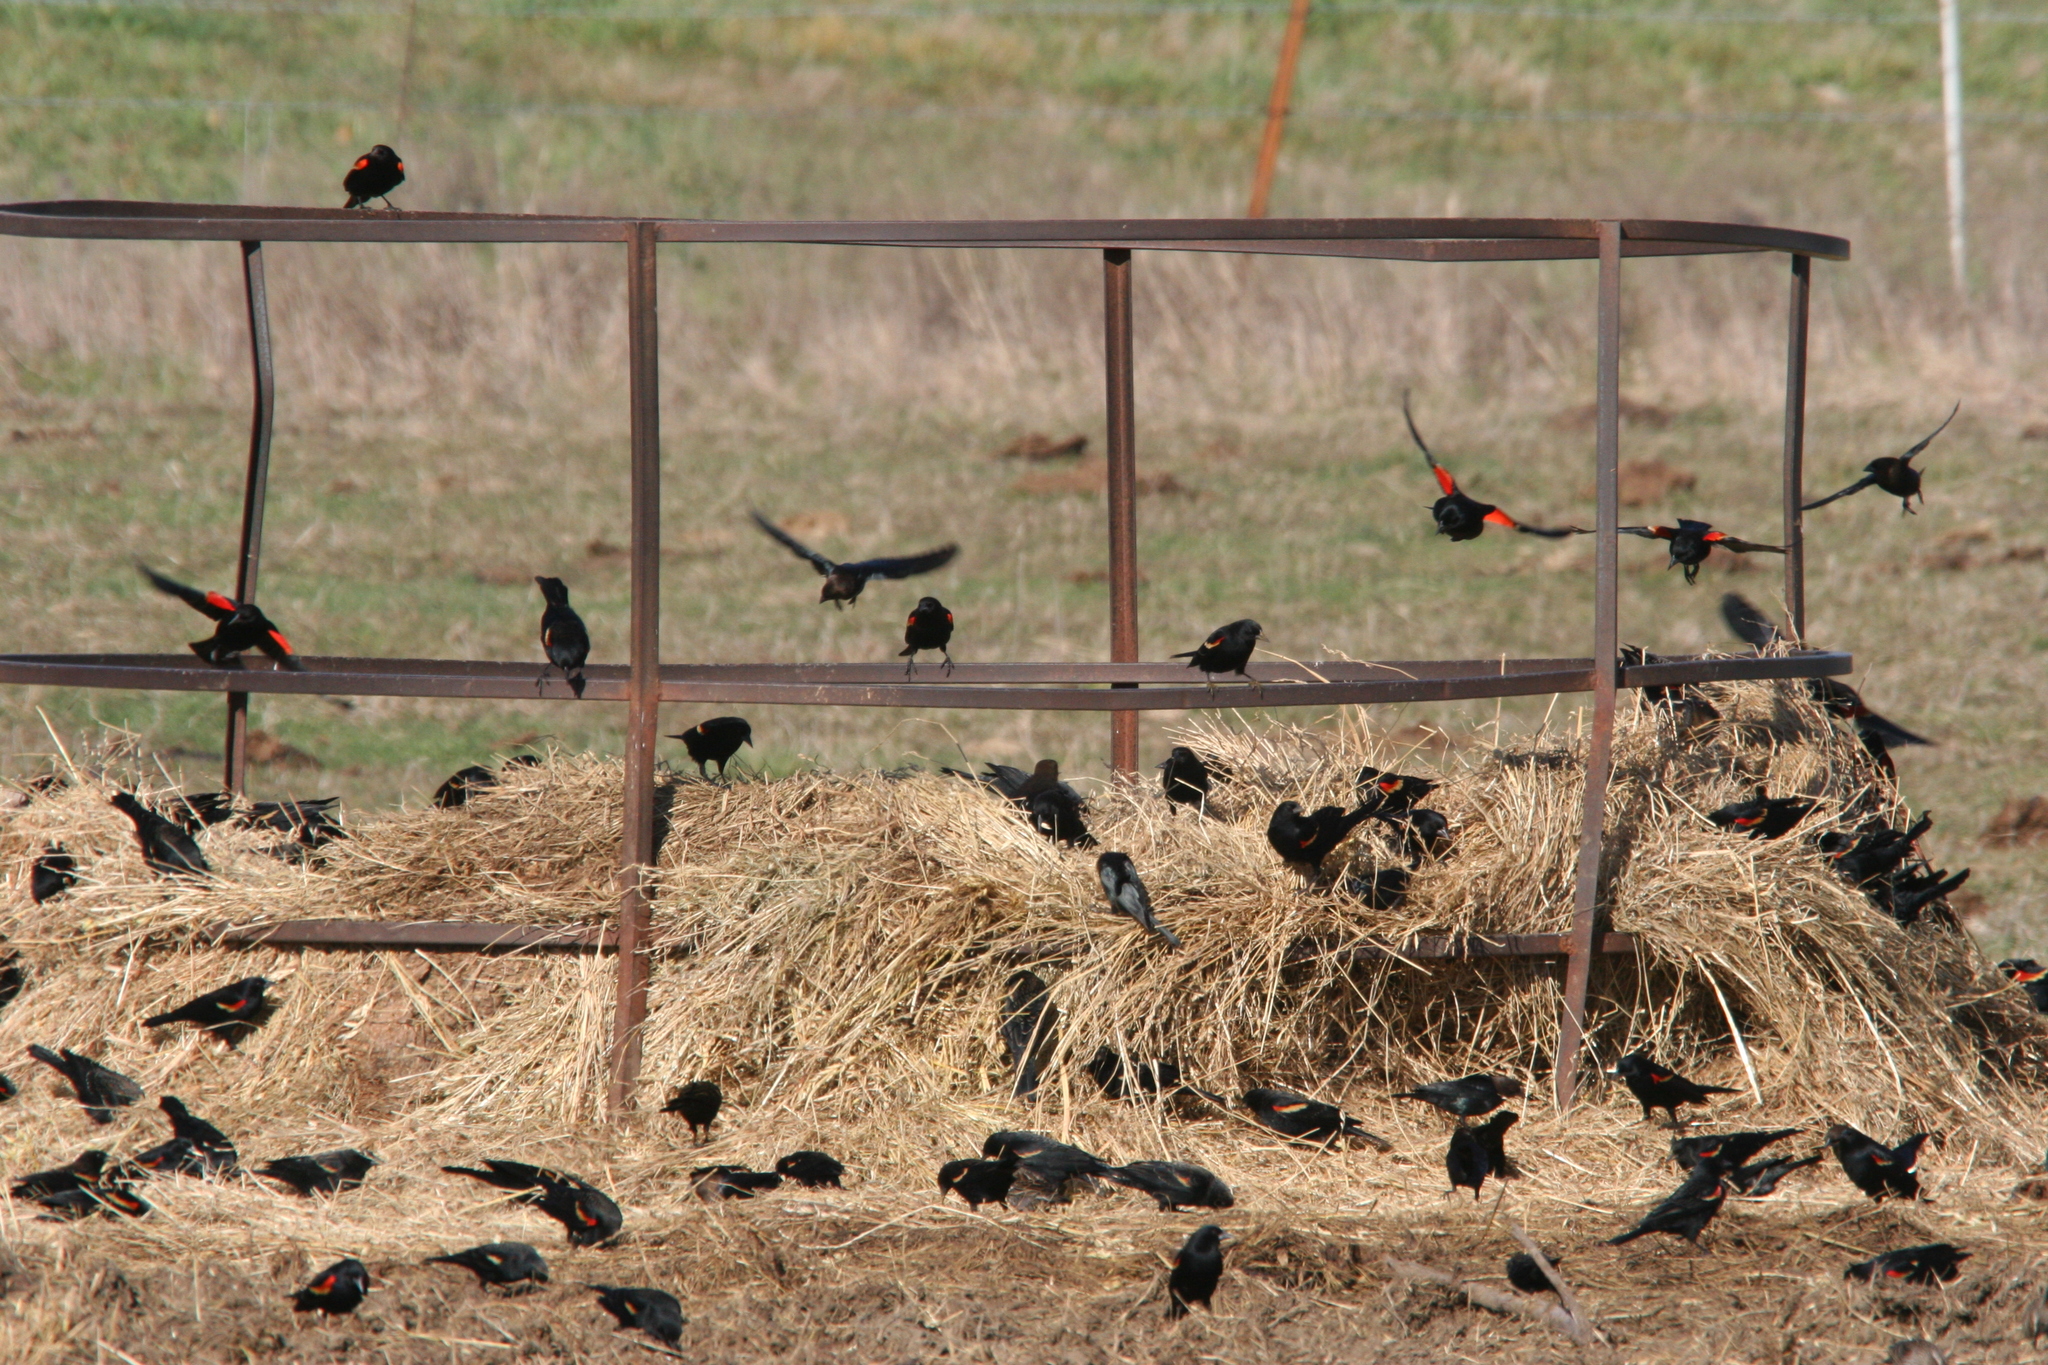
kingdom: Animalia
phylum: Chordata
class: Aves
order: Passeriformes
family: Icteridae
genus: Agelaius
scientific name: Agelaius phoeniceus
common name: Red-winged blackbird
